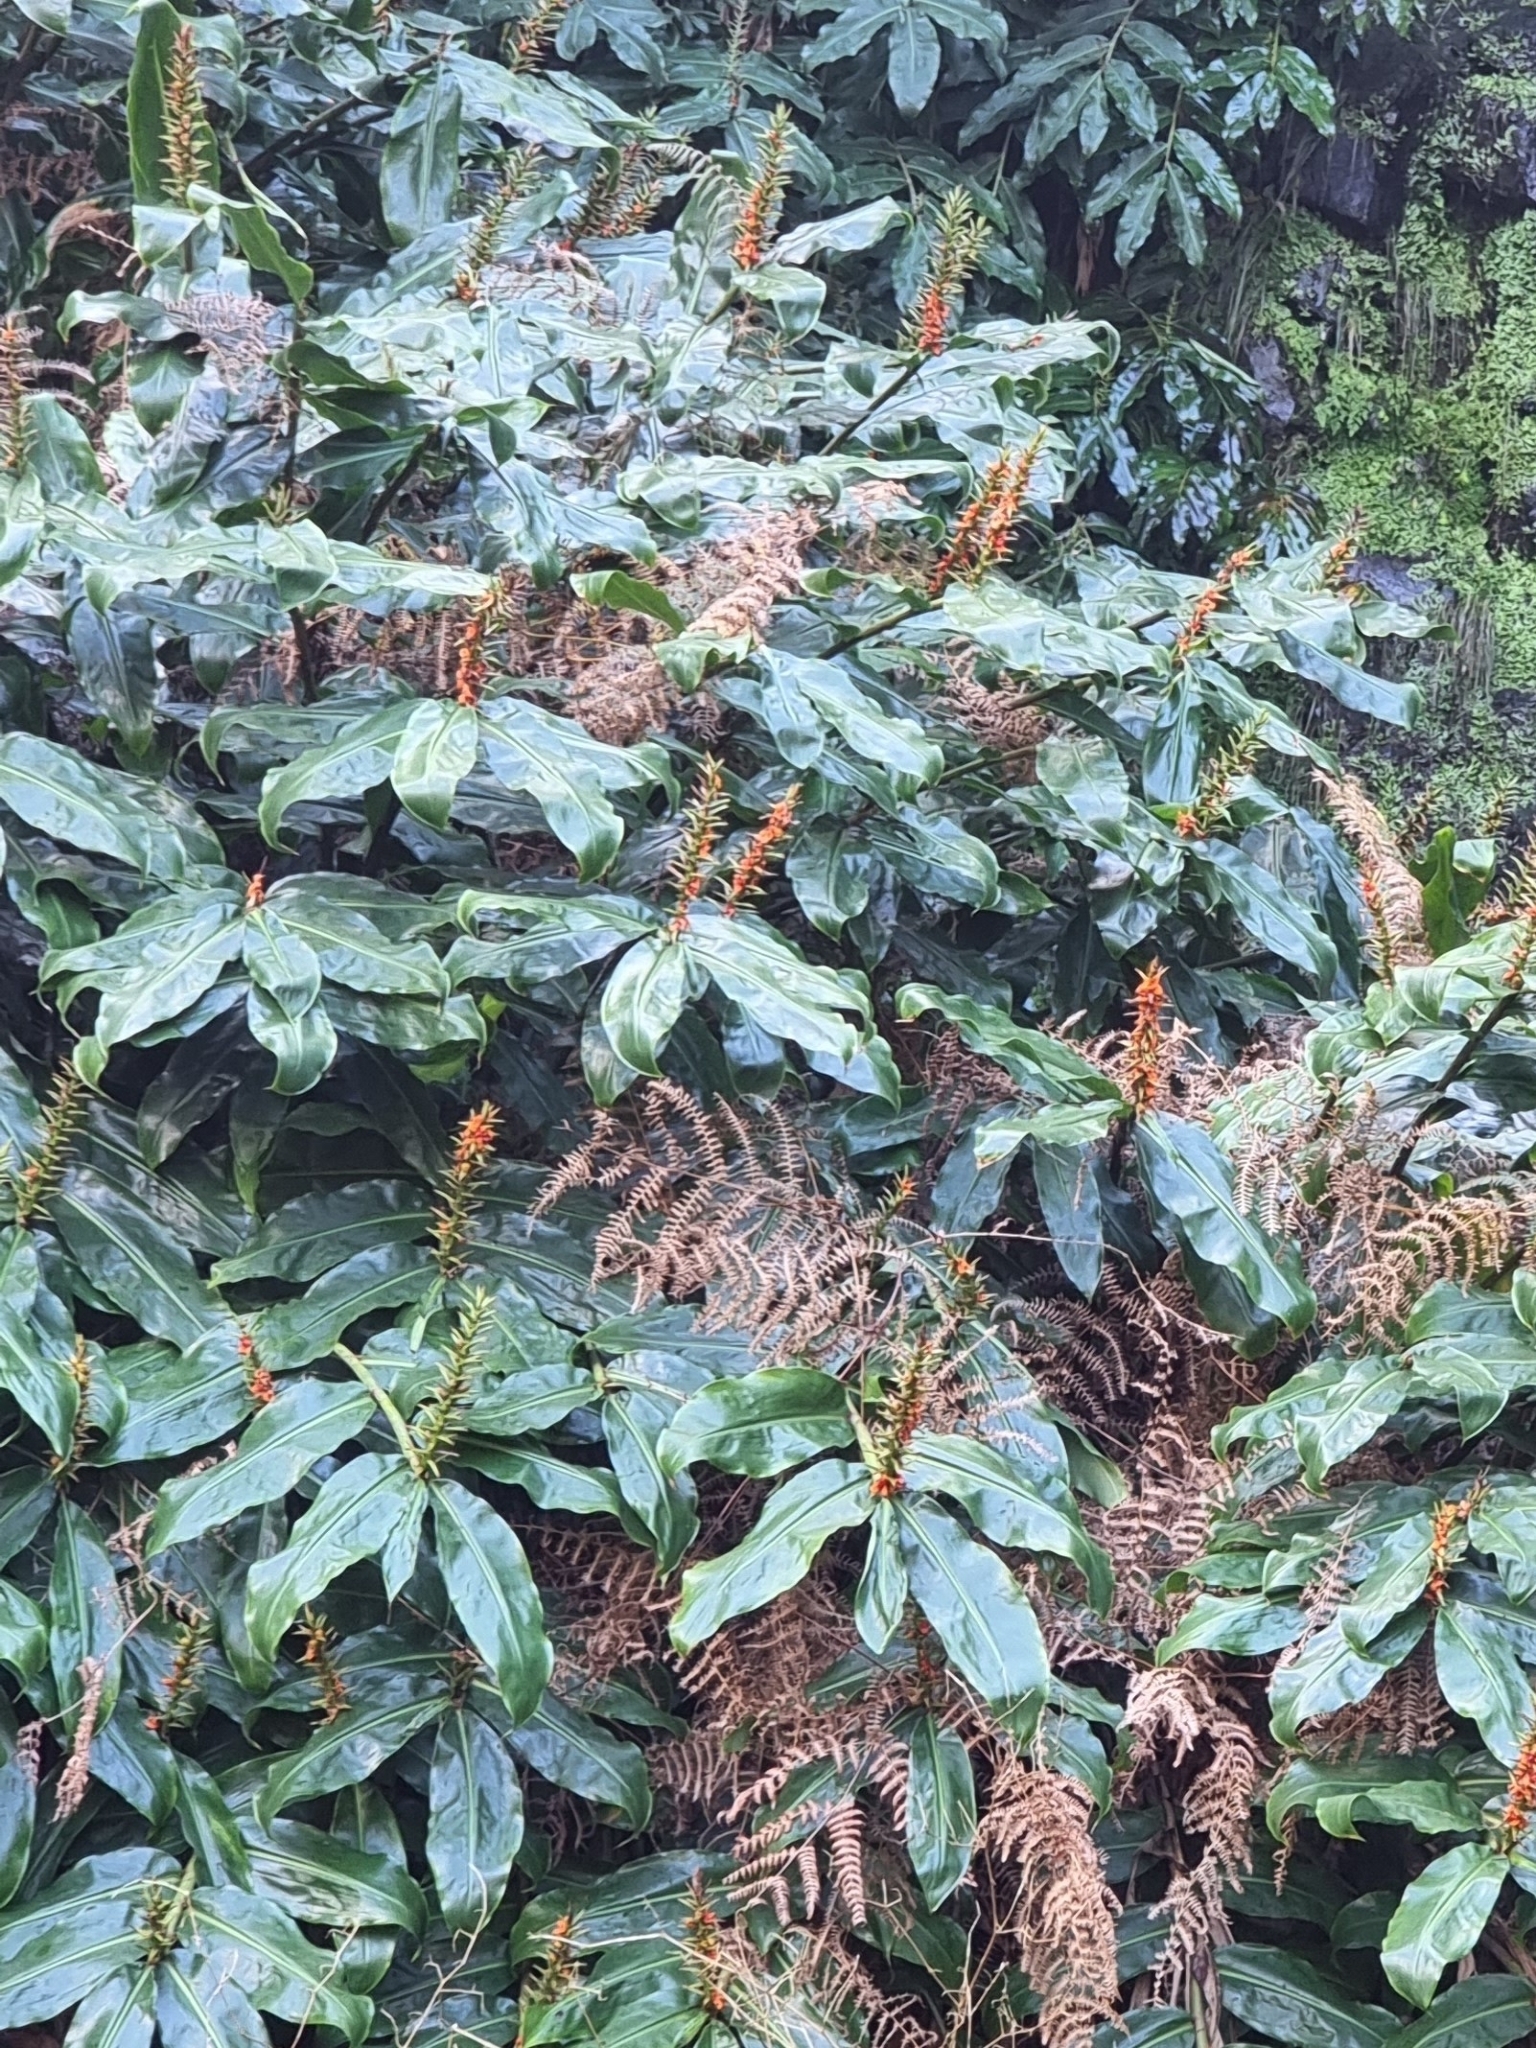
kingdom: Plantae
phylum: Tracheophyta
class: Liliopsida
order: Zingiberales
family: Zingiberaceae
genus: Hedychium
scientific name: Hedychium gardnerianum
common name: Himalayan ginger
